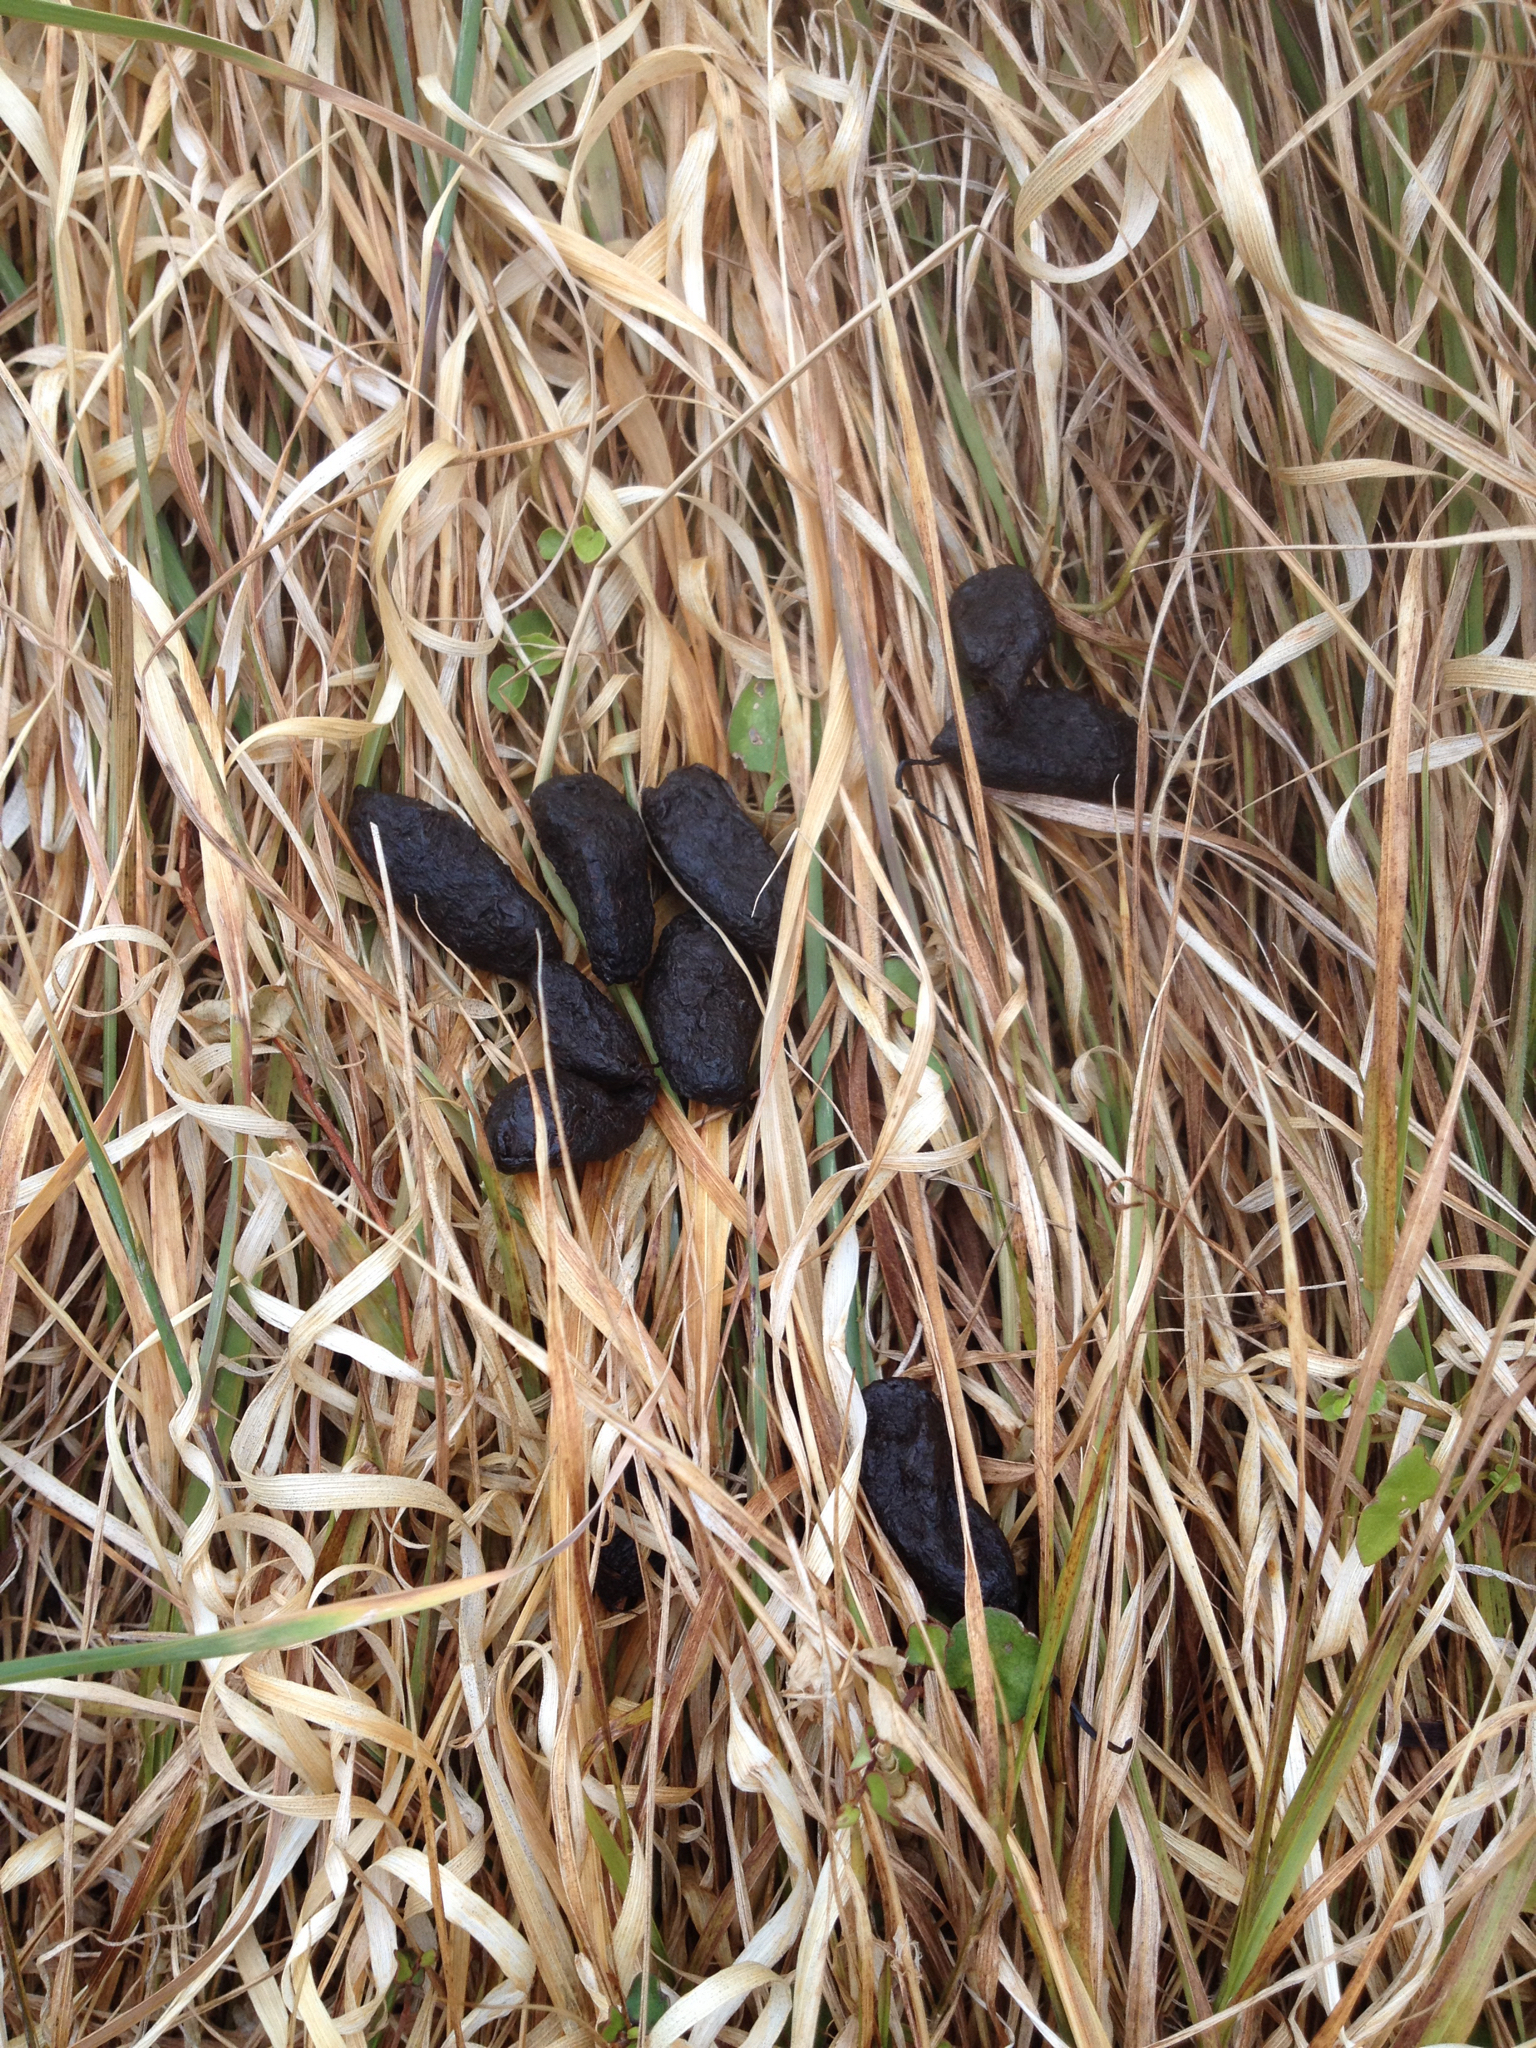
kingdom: Animalia
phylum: Chordata
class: Mammalia
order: Diprotodontia
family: Phalangeridae
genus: Trichosurus
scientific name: Trichosurus vulpecula
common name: Common brushtail
